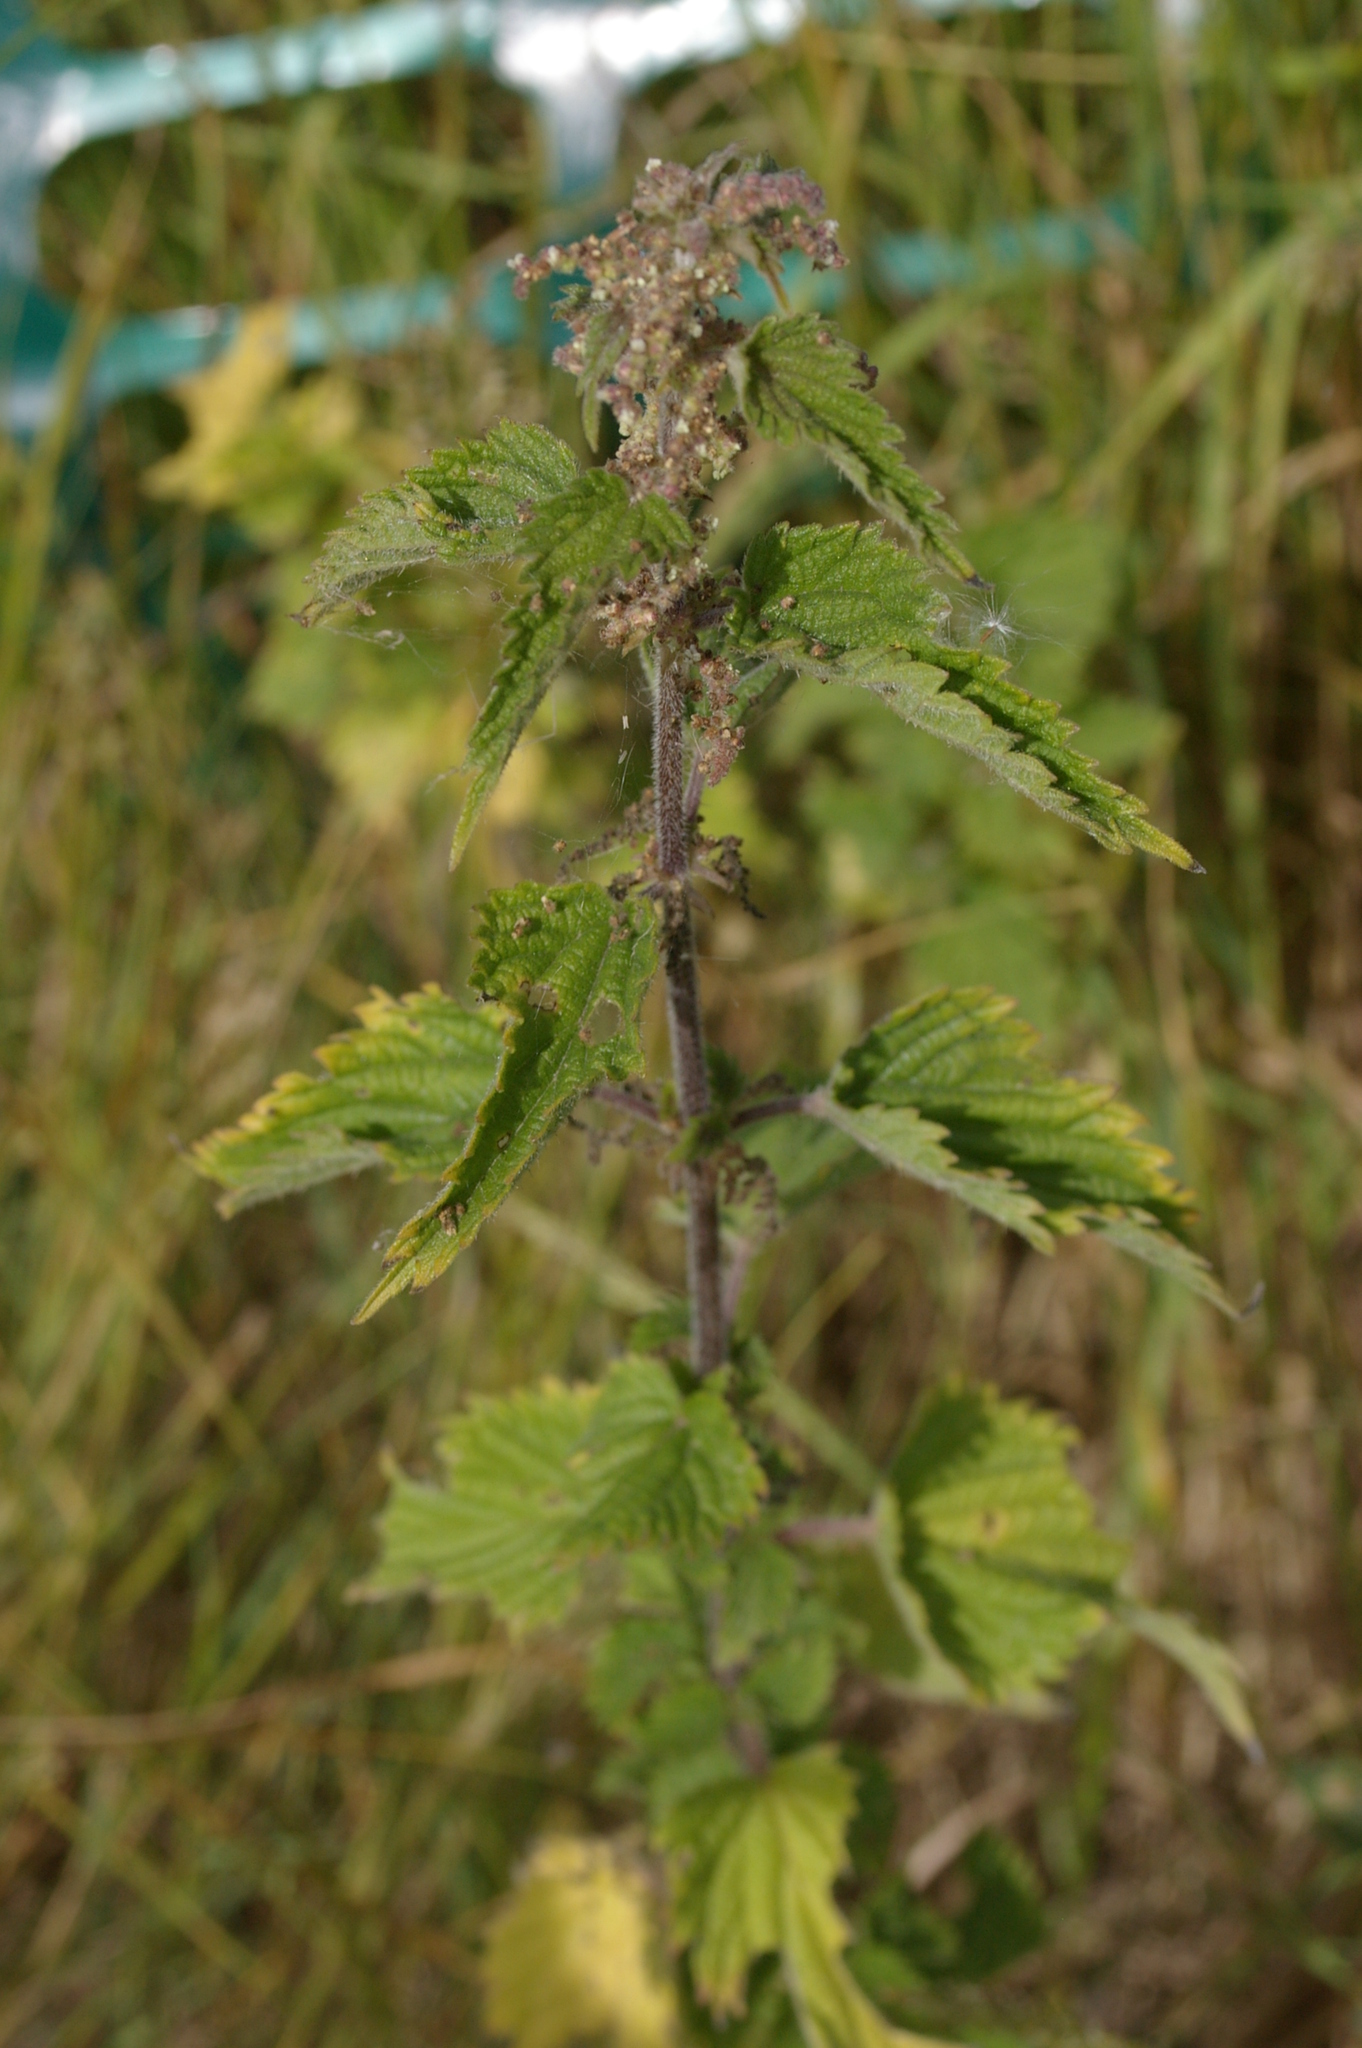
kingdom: Plantae
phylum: Tracheophyta
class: Magnoliopsida
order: Rosales
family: Urticaceae
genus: Urtica
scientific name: Urtica dioica
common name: Common nettle
